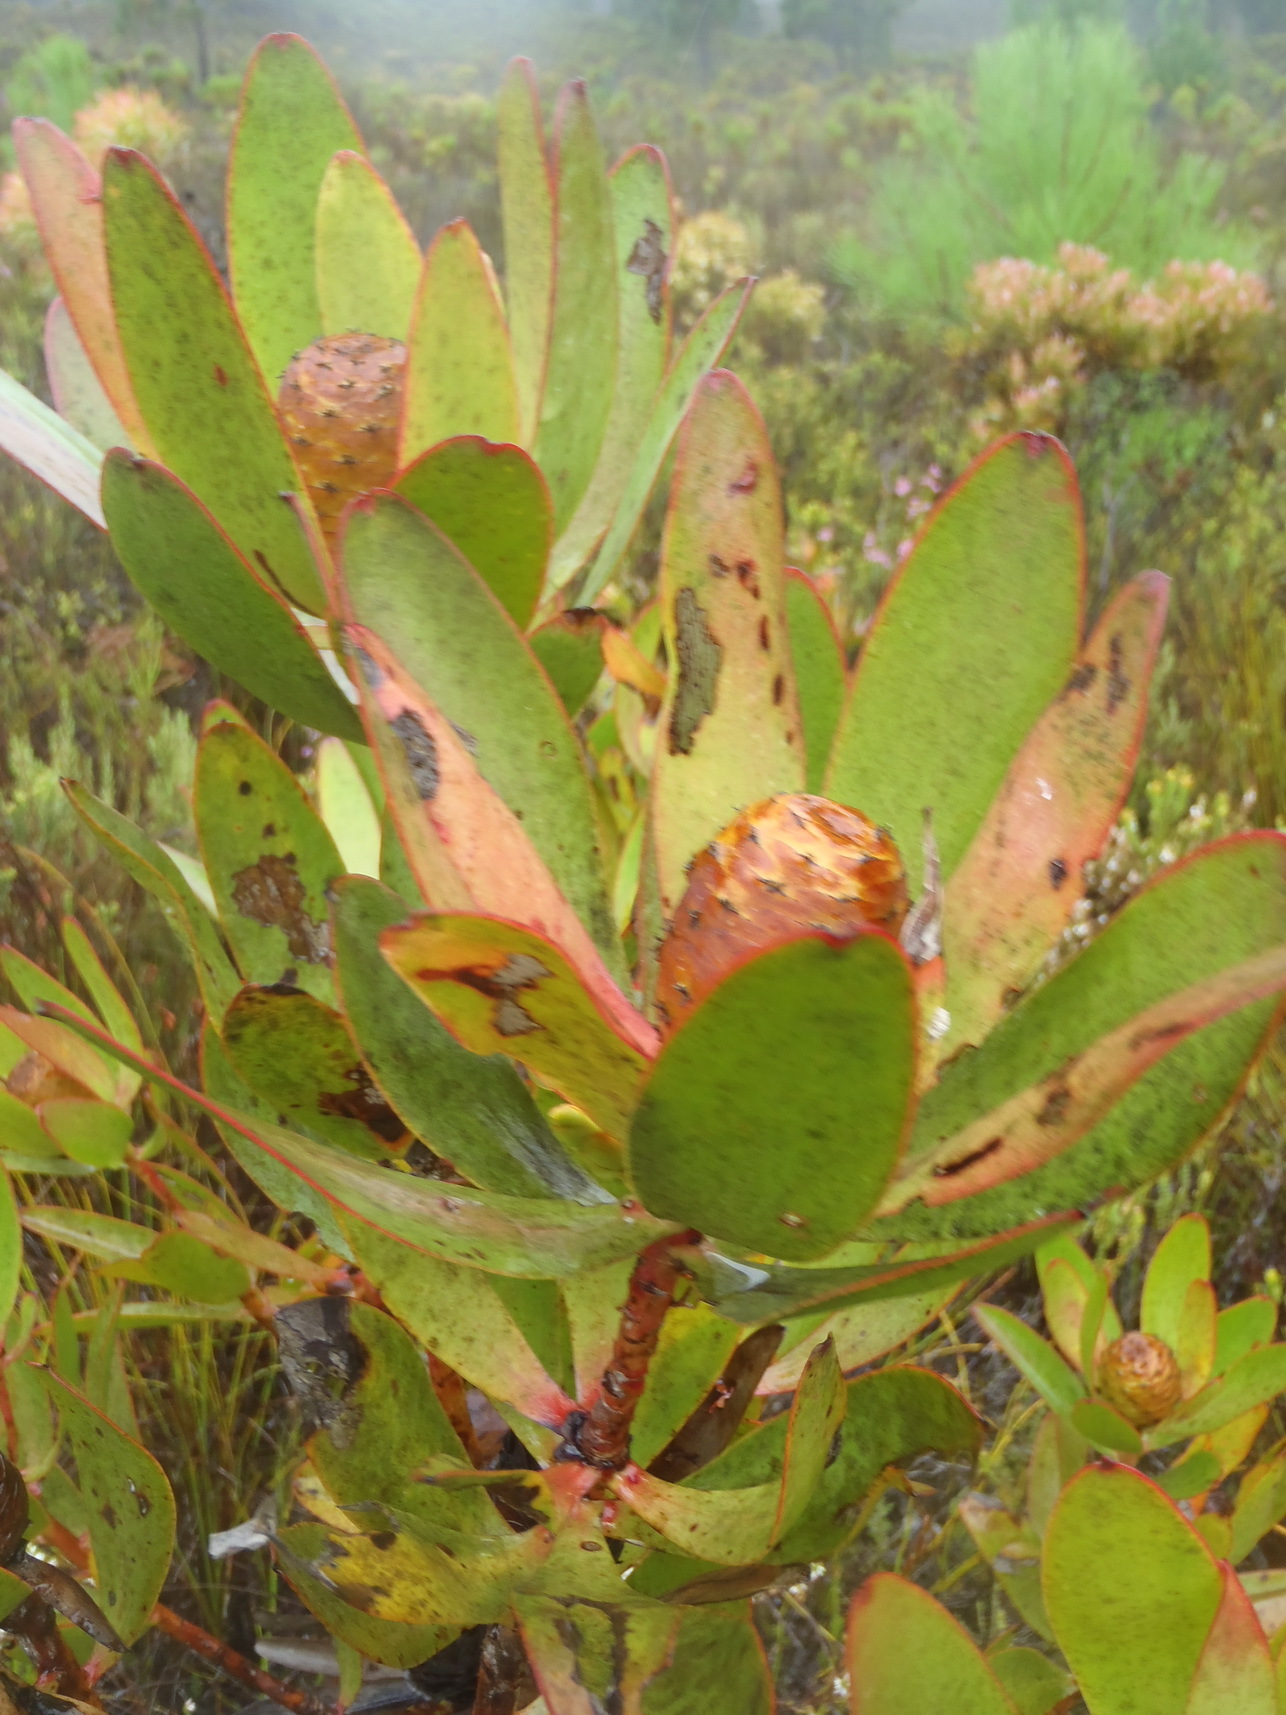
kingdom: Plantae
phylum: Tracheophyta
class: Magnoliopsida
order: Proteales
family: Proteaceae
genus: Leucadendron
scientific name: Leucadendron gandogeri
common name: Broad-leaf conebush
